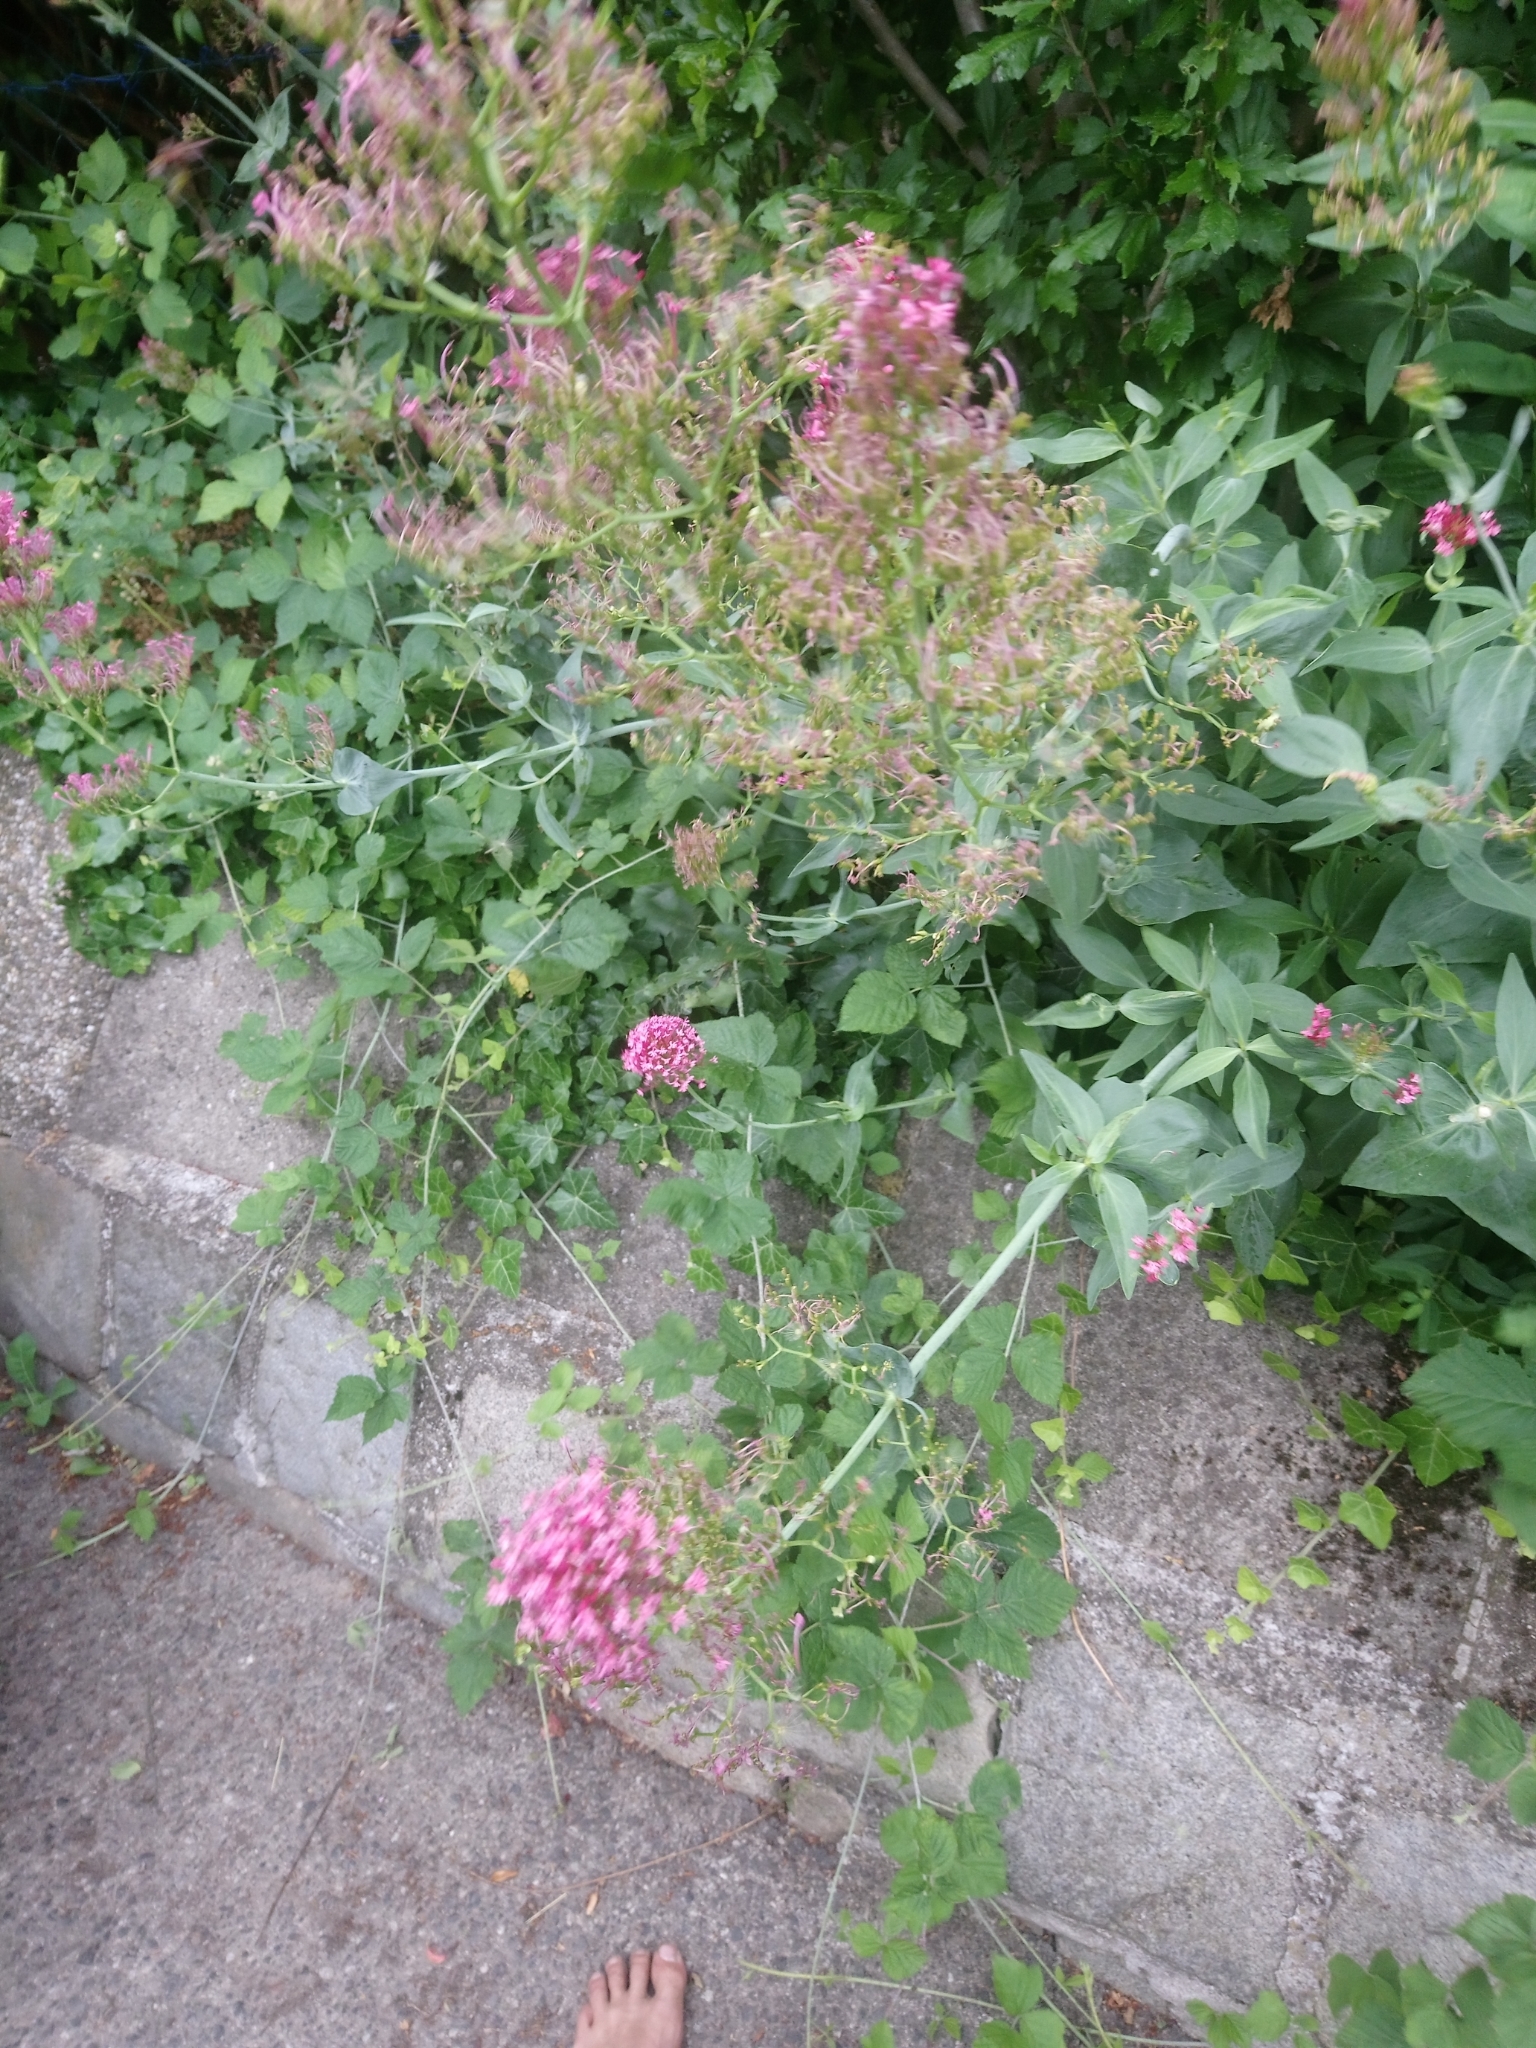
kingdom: Plantae
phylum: Tracheophyta
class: Magnoliopsida
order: Dipsacales
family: Caprifoliaceae
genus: Centranthus
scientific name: Centranthus ruber
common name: Red valerian
